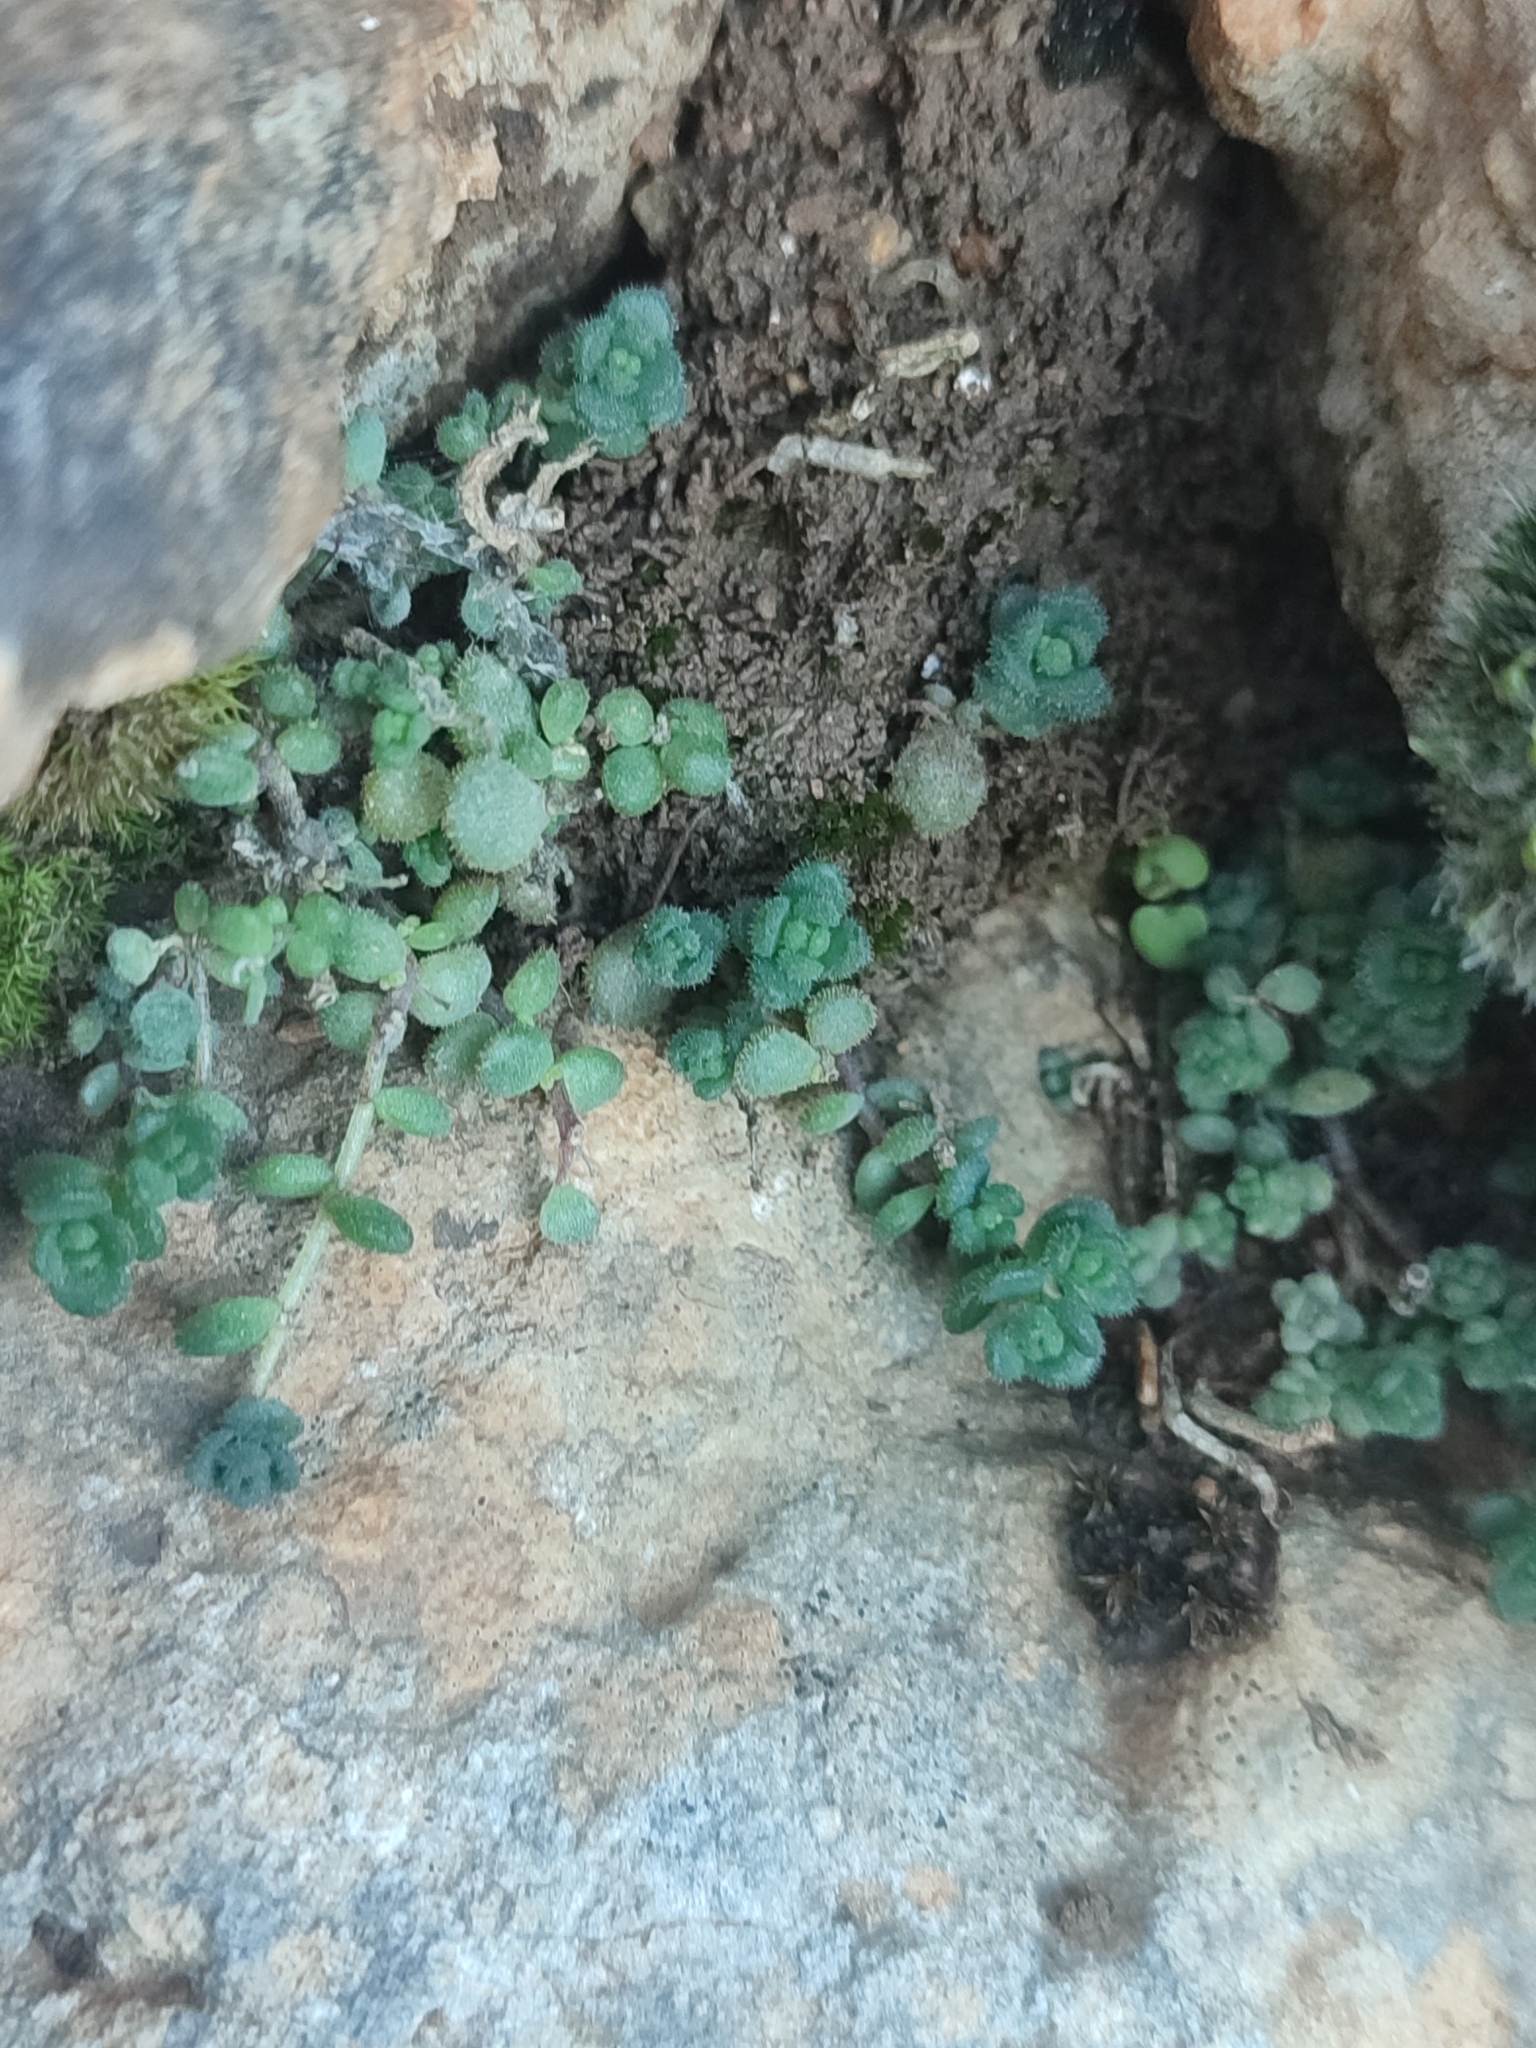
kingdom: Plantae
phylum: Tracheophyta
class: Magnoliopsida
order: Saxifragales
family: Crassulaceae
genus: Sedum
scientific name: Sedum dasyphyllum
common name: Thick-leaf stonecrop
